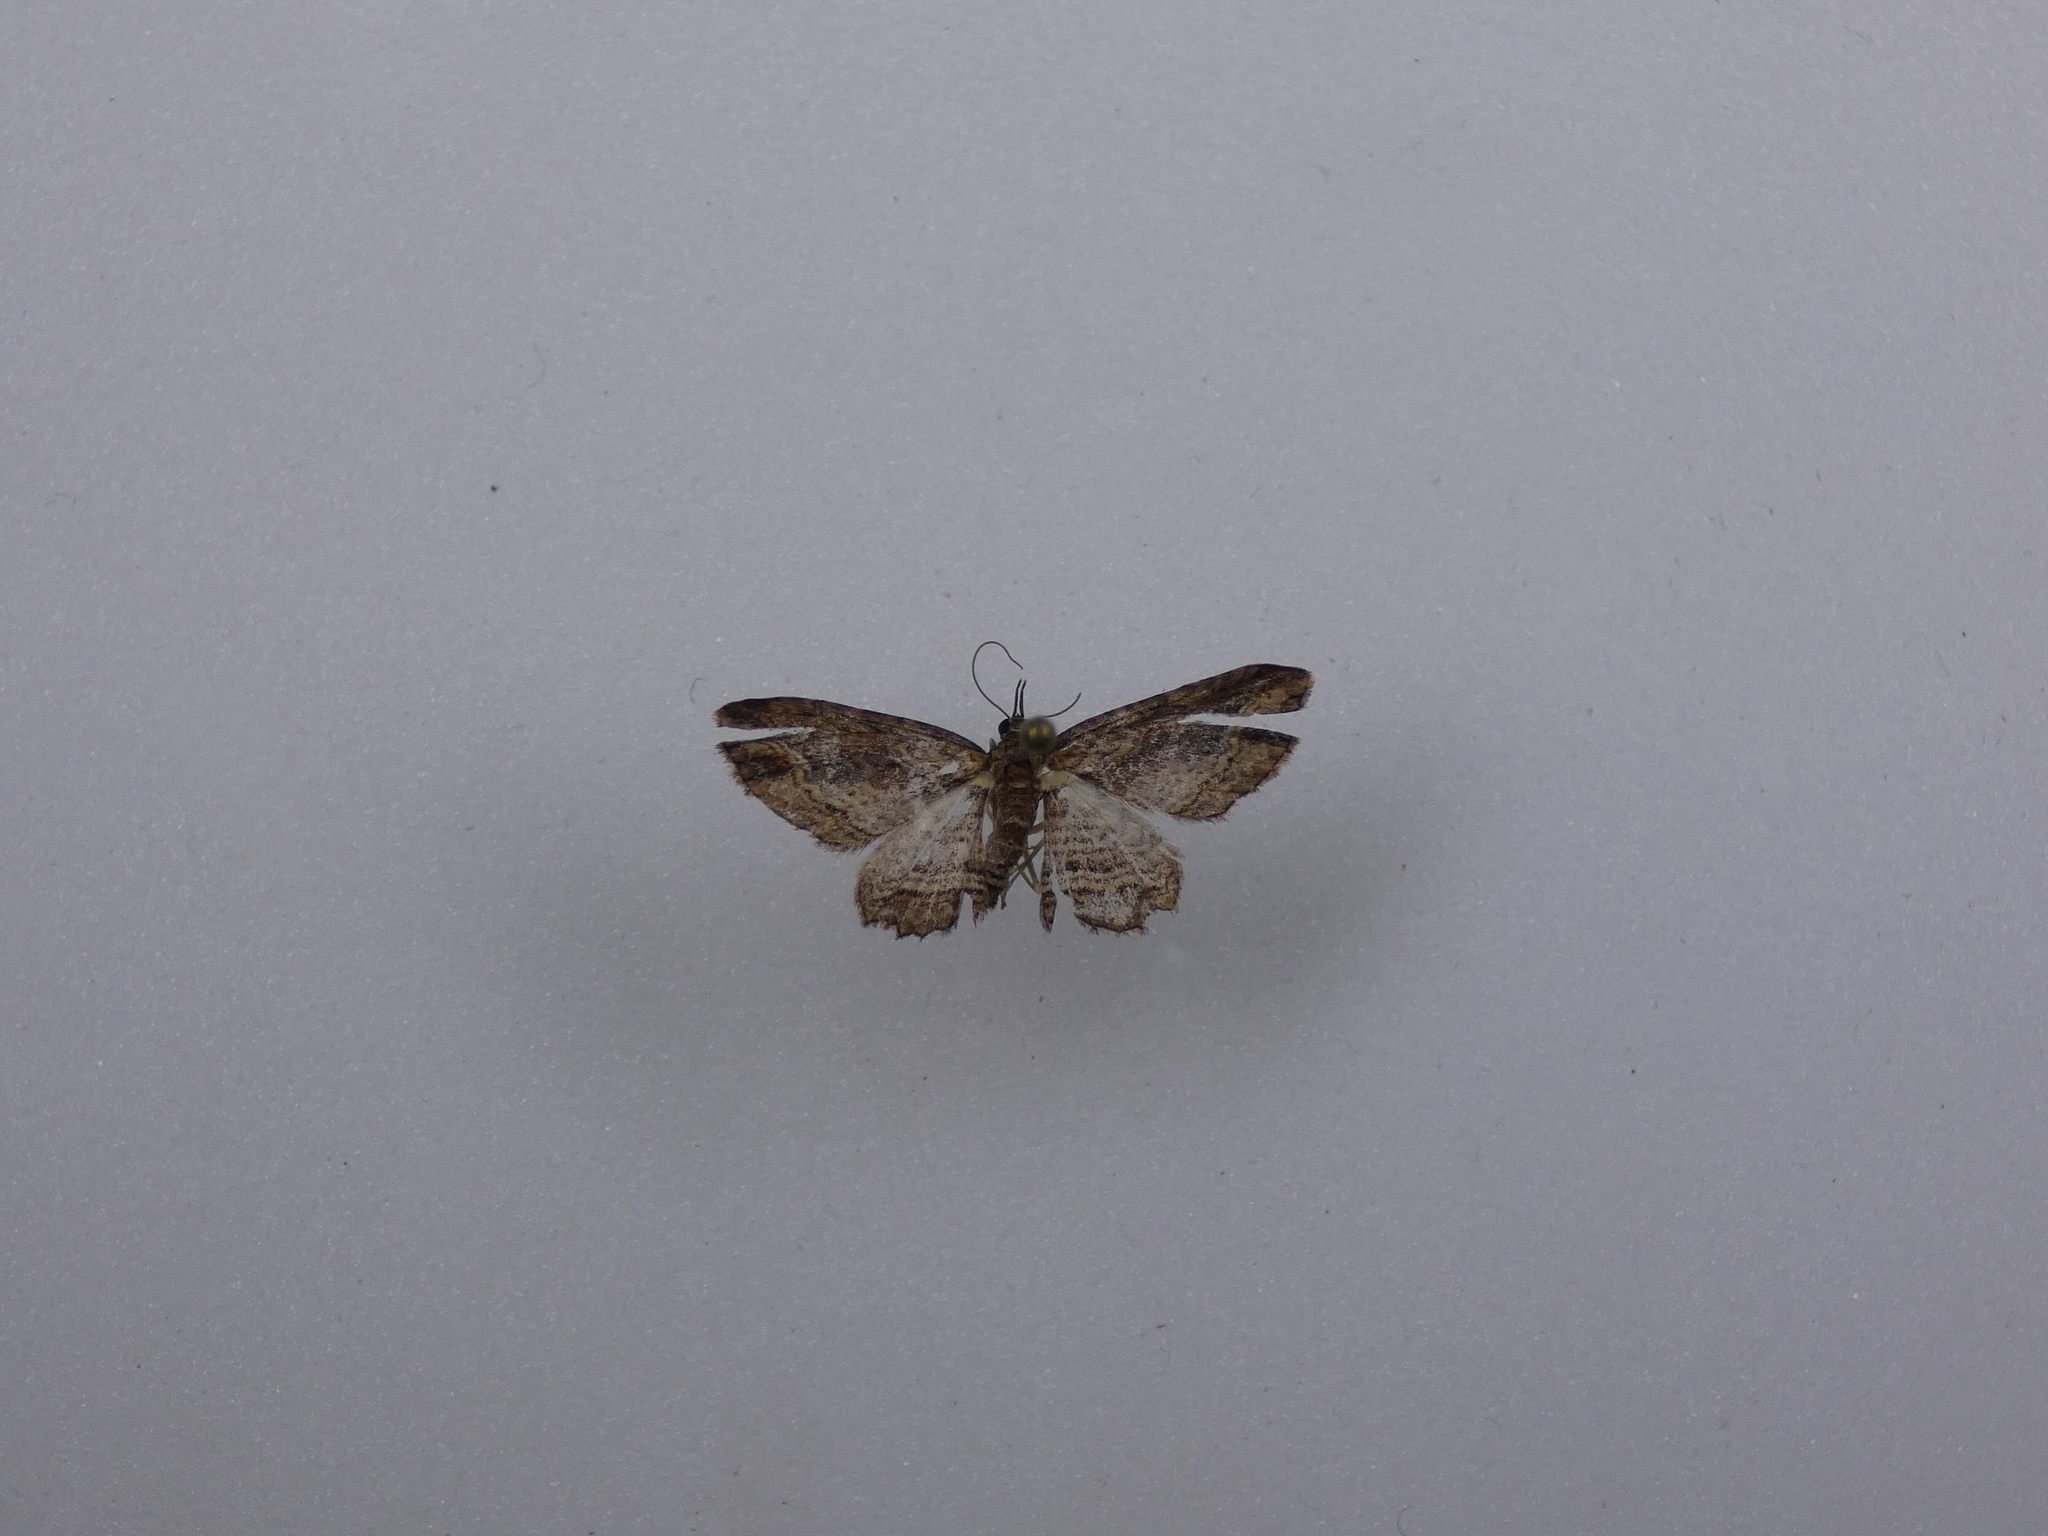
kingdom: Animalia
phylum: Arthropoda
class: Insecta
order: Lepidoptera
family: Geometridae
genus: Chloroclystis
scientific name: Chloroclystis filata
